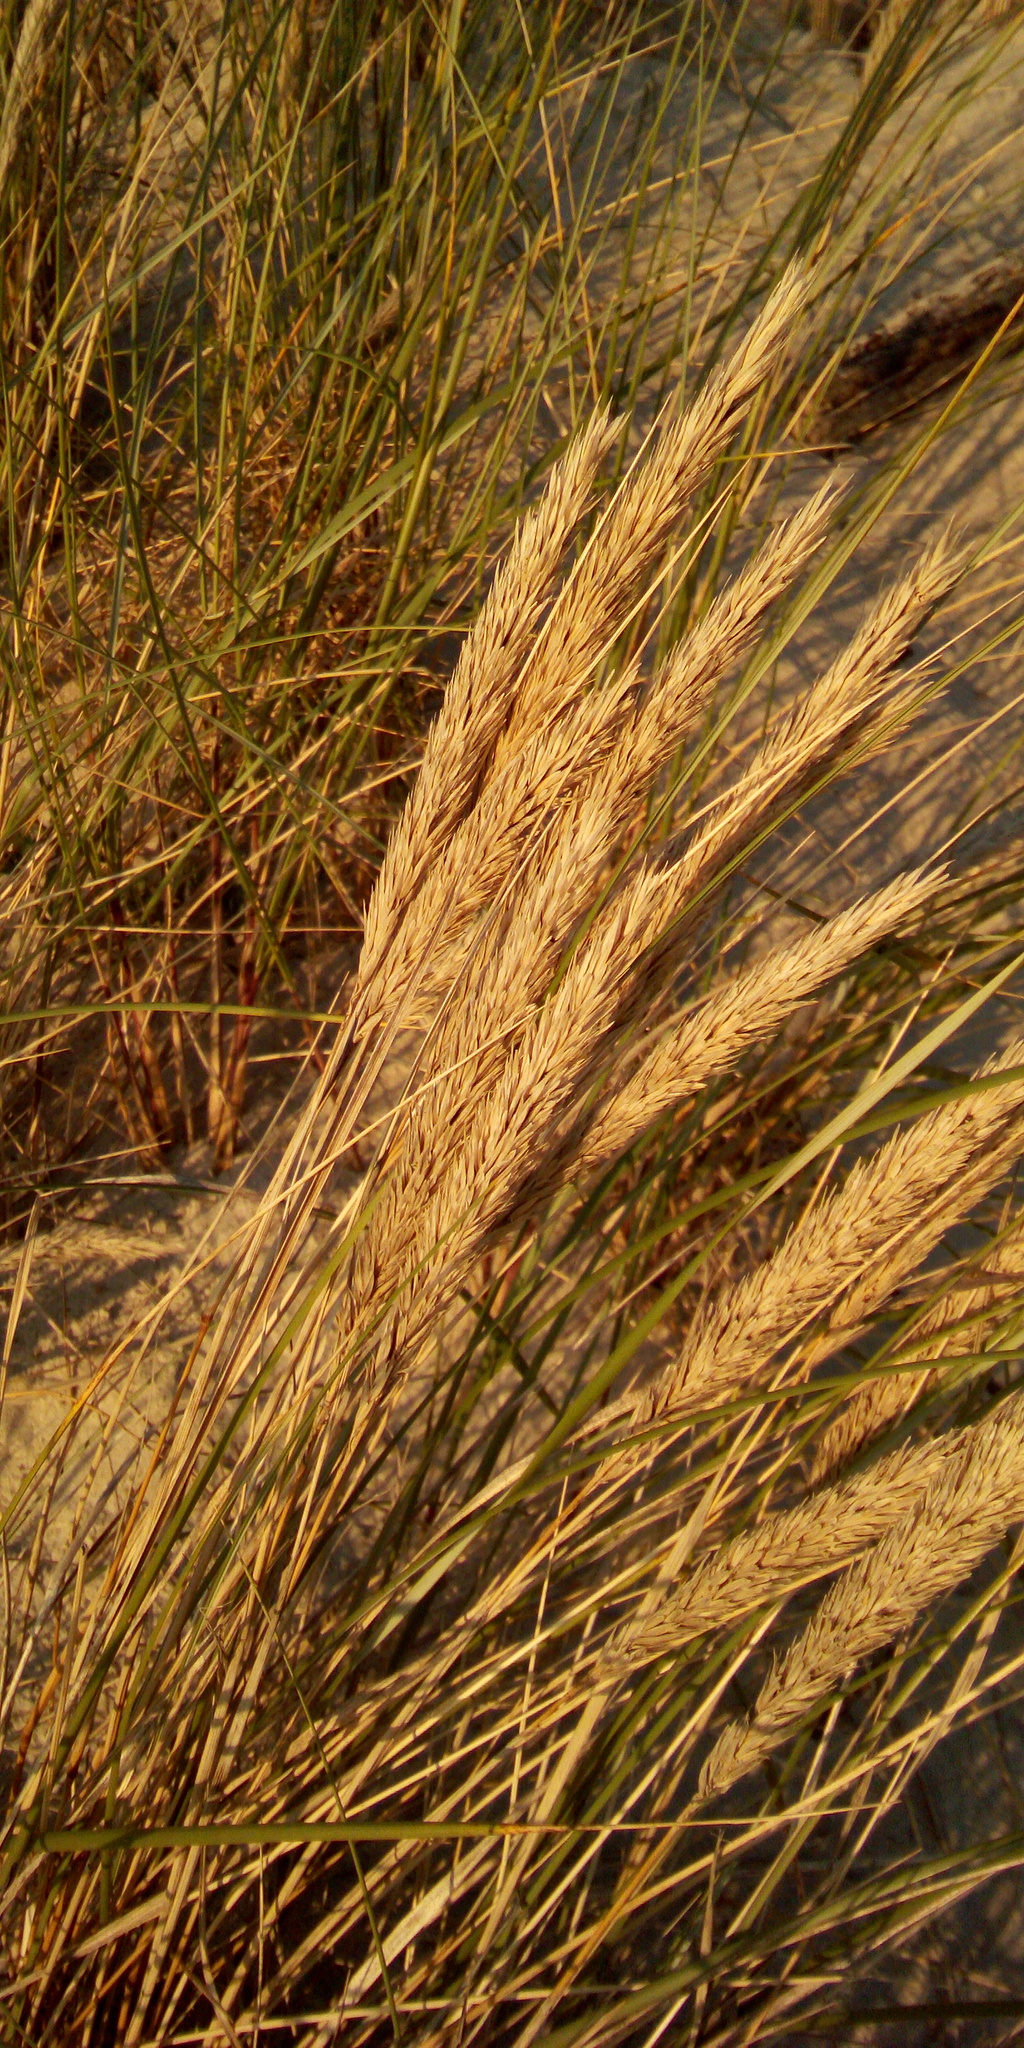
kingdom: Plantae
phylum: Tracheophyta
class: Liliopsida
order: Poales
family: Poaceae
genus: Calamagrostis
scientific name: Calamagrostis arenaria
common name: European beachgrass
